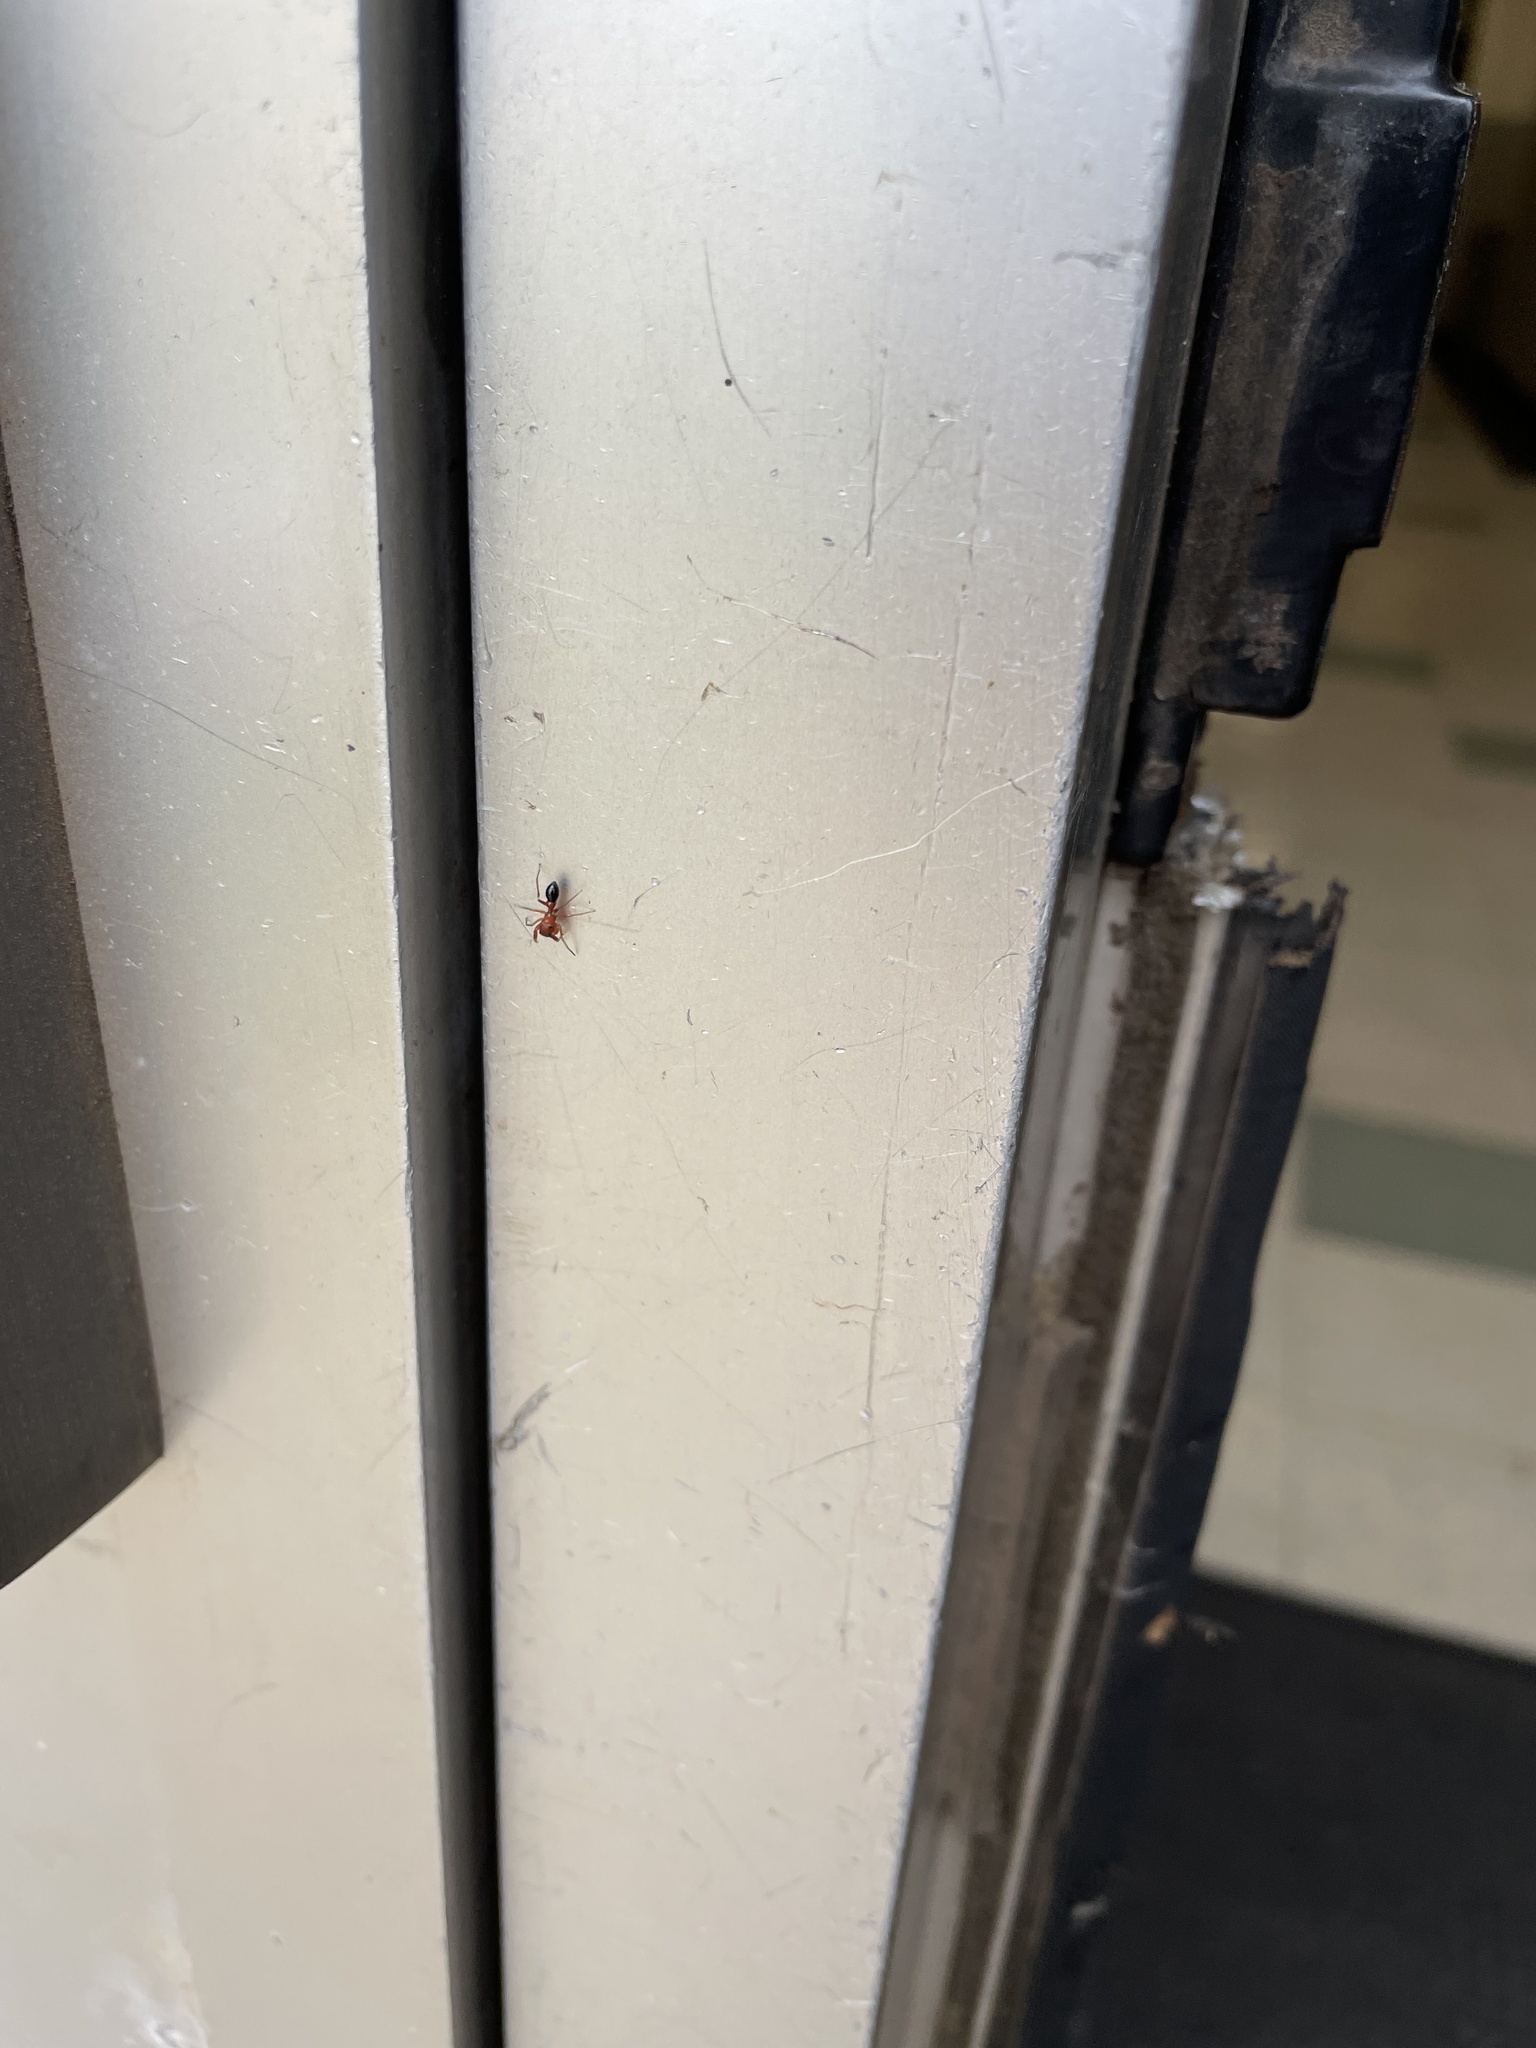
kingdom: Animalia
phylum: Arthropoda
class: Arachnida
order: Araneae
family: Salticidae
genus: Peckhamia
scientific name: Peckhamia
